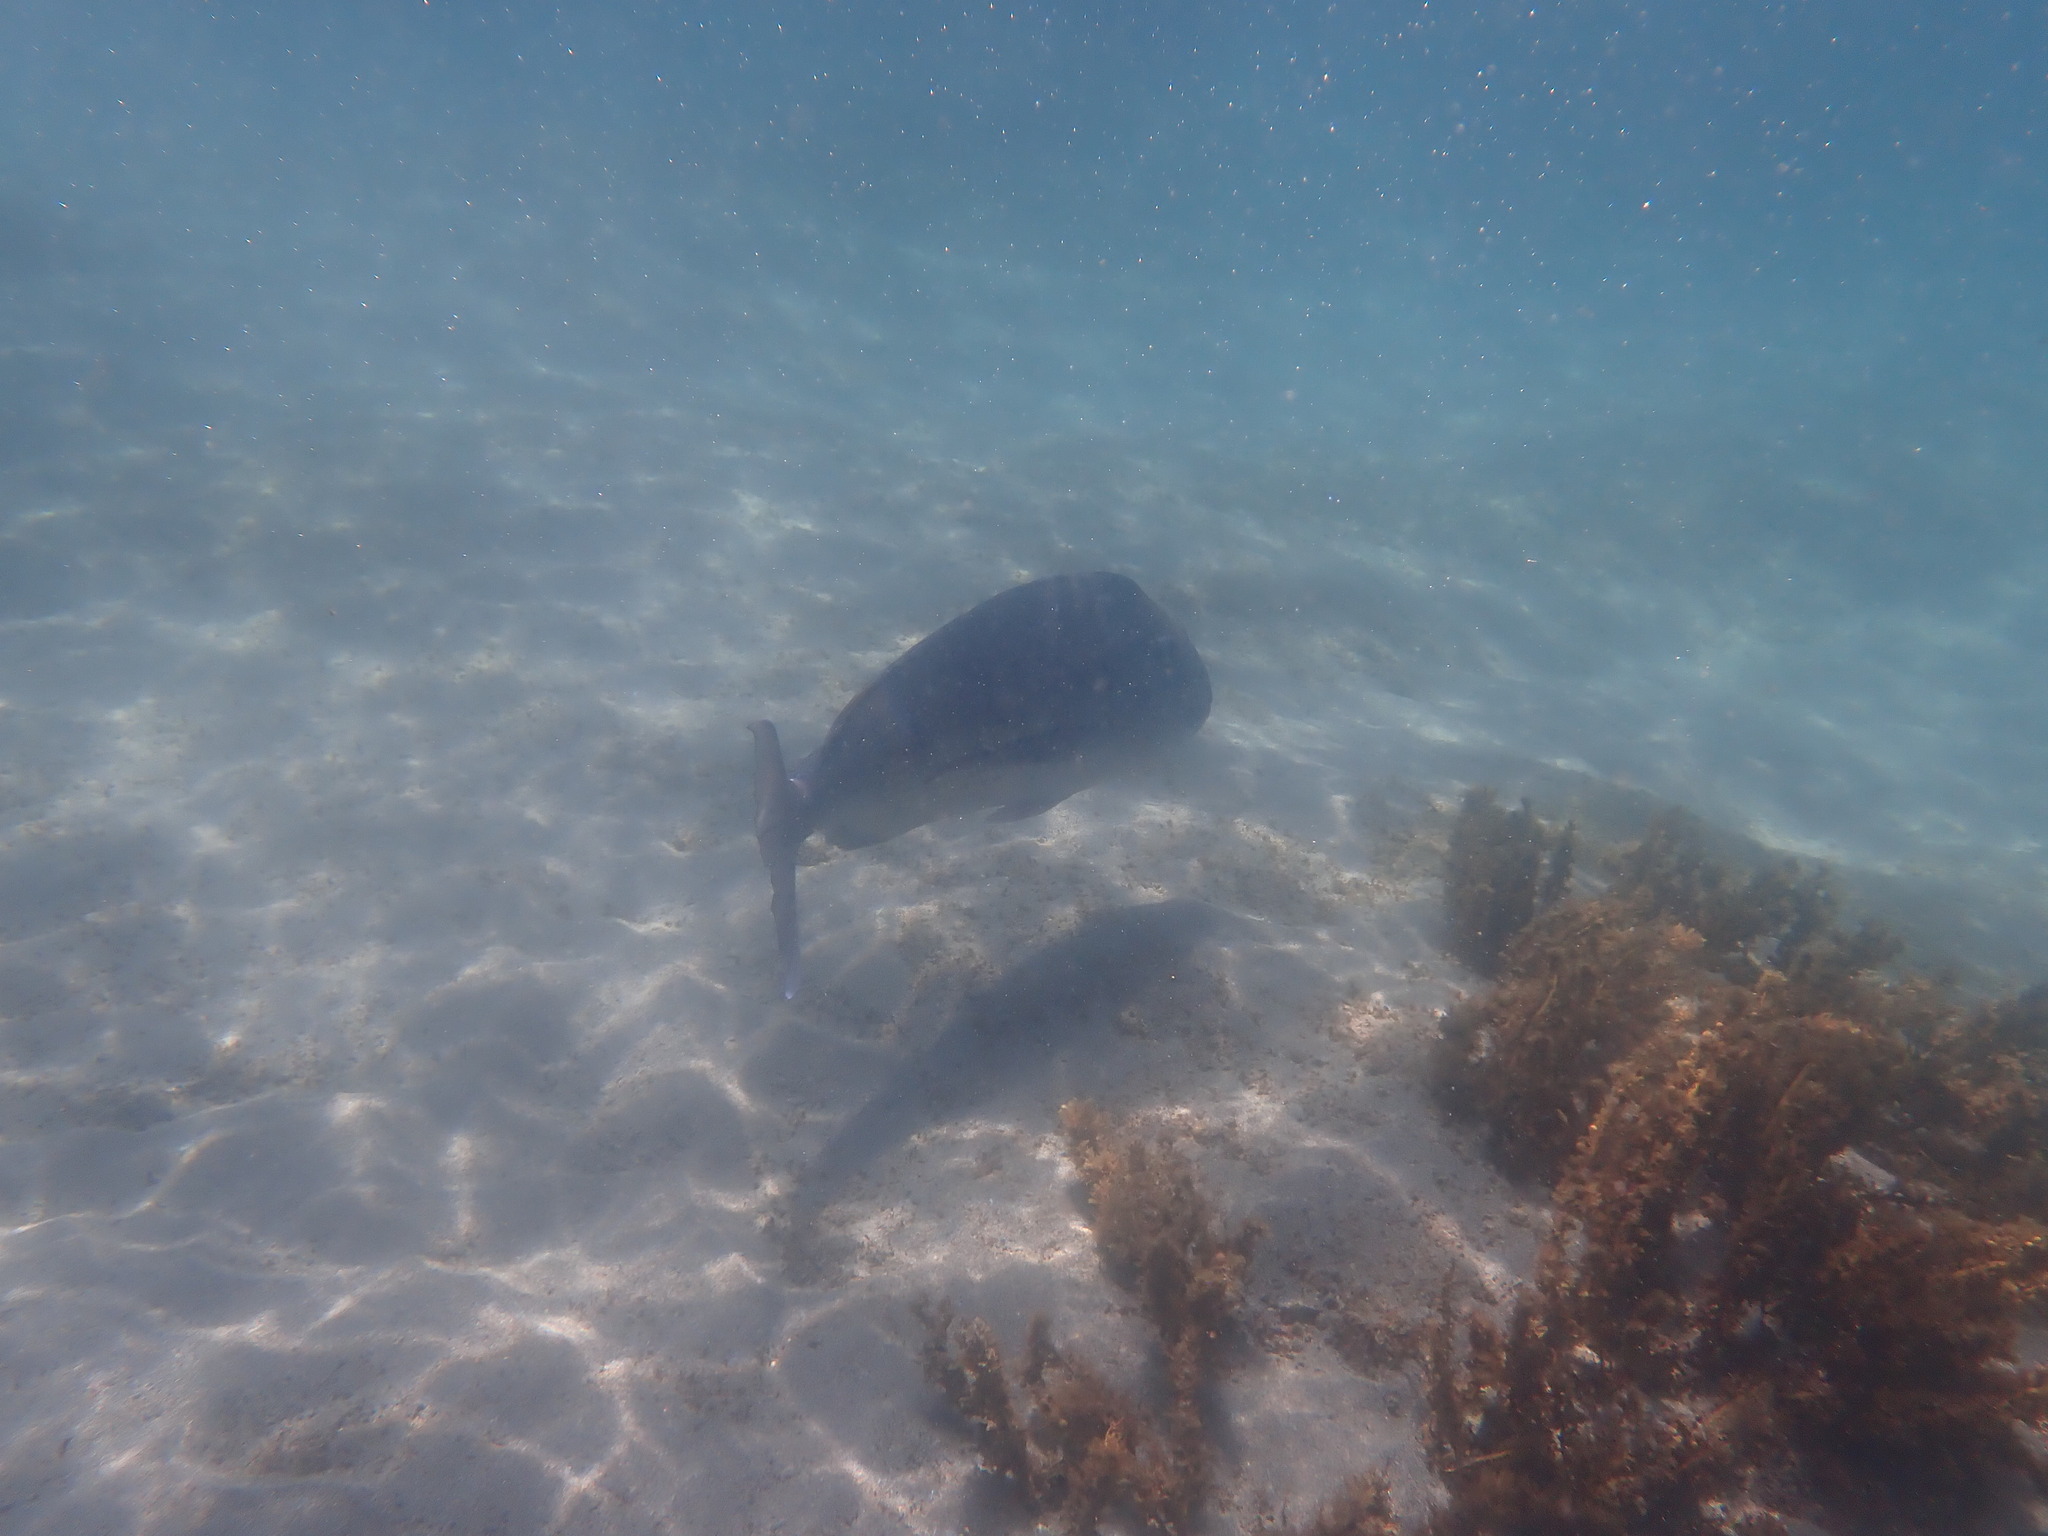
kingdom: Animalia
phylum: Chordata
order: Perciformes
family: Sparidae
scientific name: Sparidae
